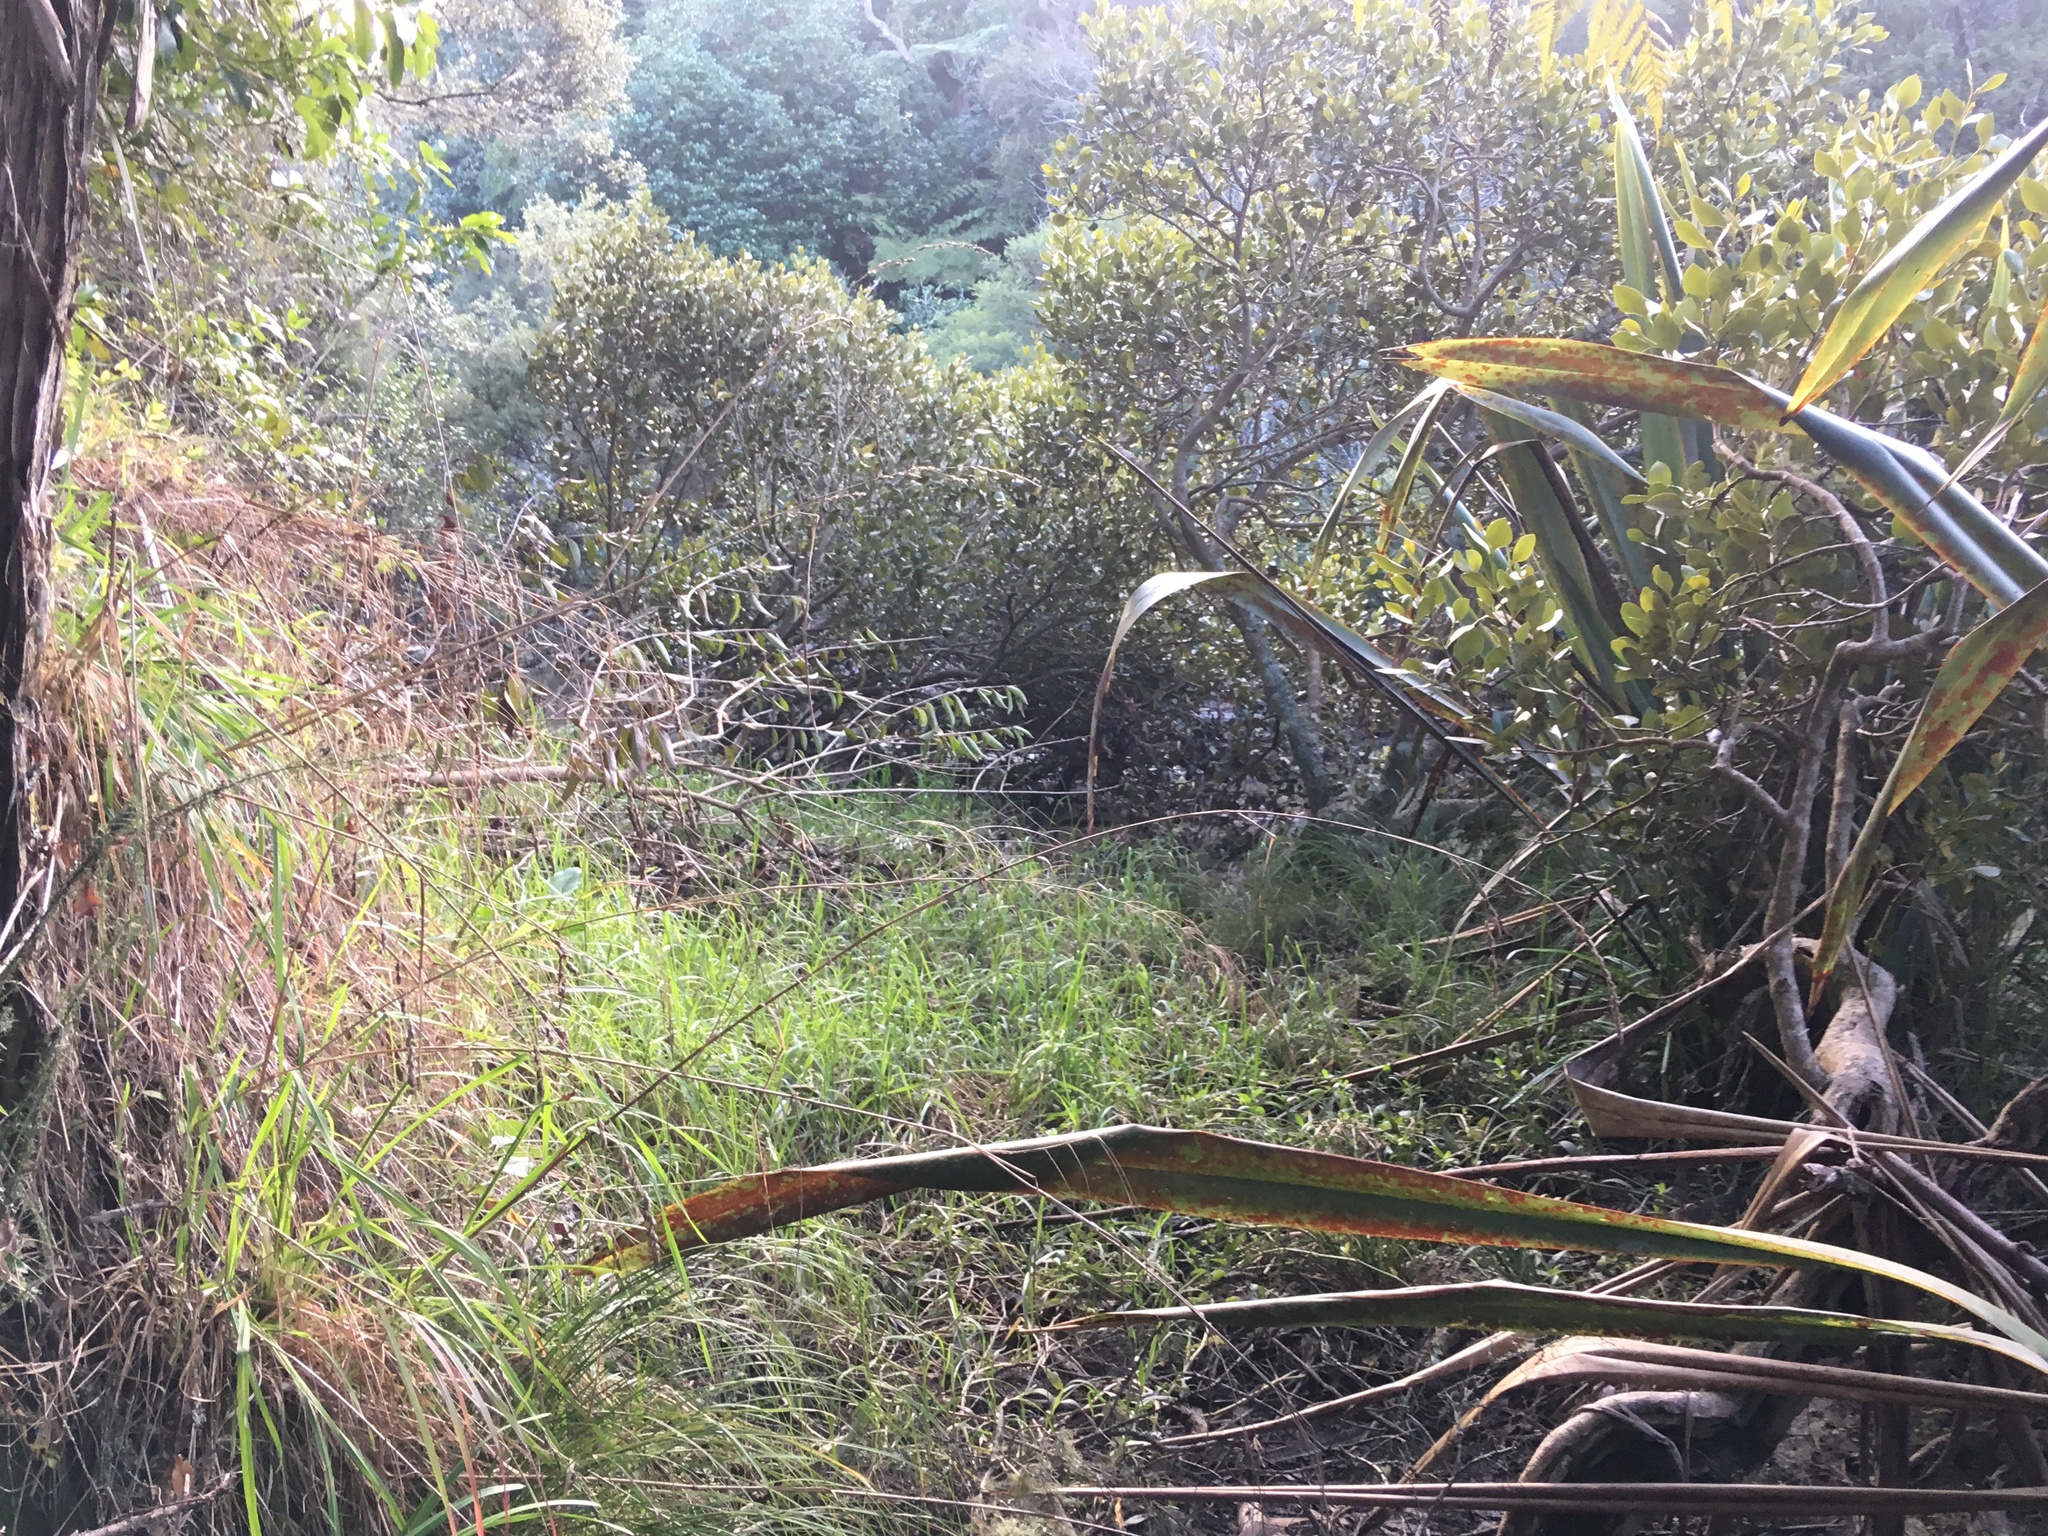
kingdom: Plantae
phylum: Tracheophyta
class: Magnoliopsida
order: Lamiales
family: Acanthaceae
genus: Avicennia
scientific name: Avicennia marina
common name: Gray mangrove
